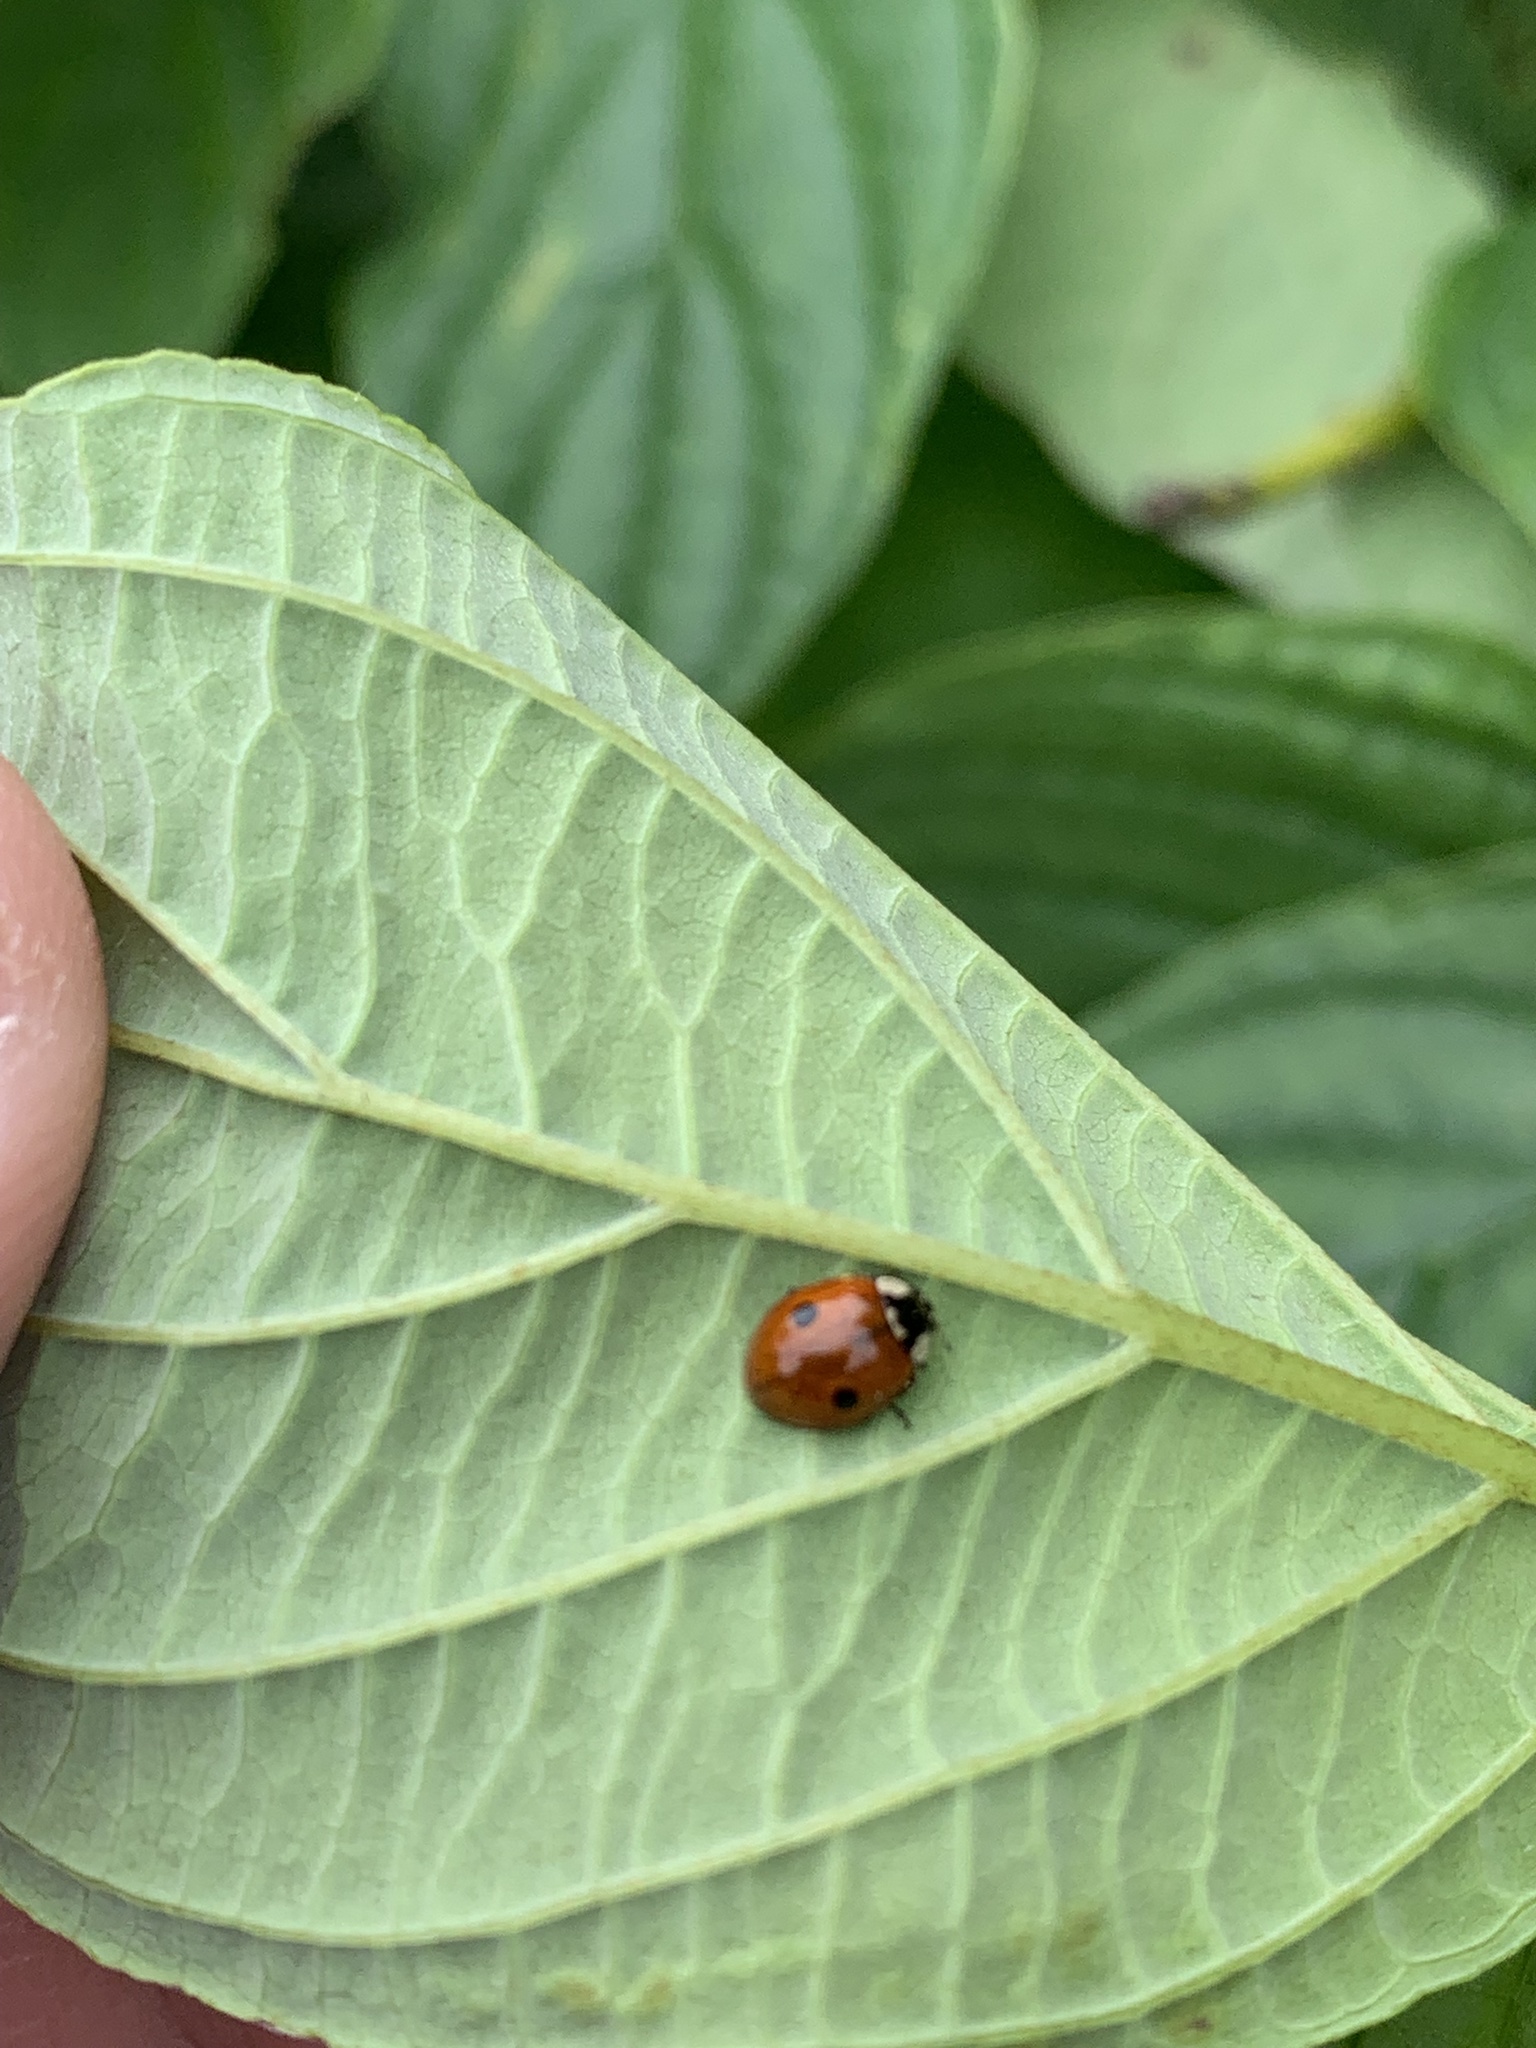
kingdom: Animalia
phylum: Arthropoda
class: Insecta
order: Coleoptera
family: Coccinellidae
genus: Adalia
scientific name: Adalia bipunctata
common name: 2-spot ladybird
